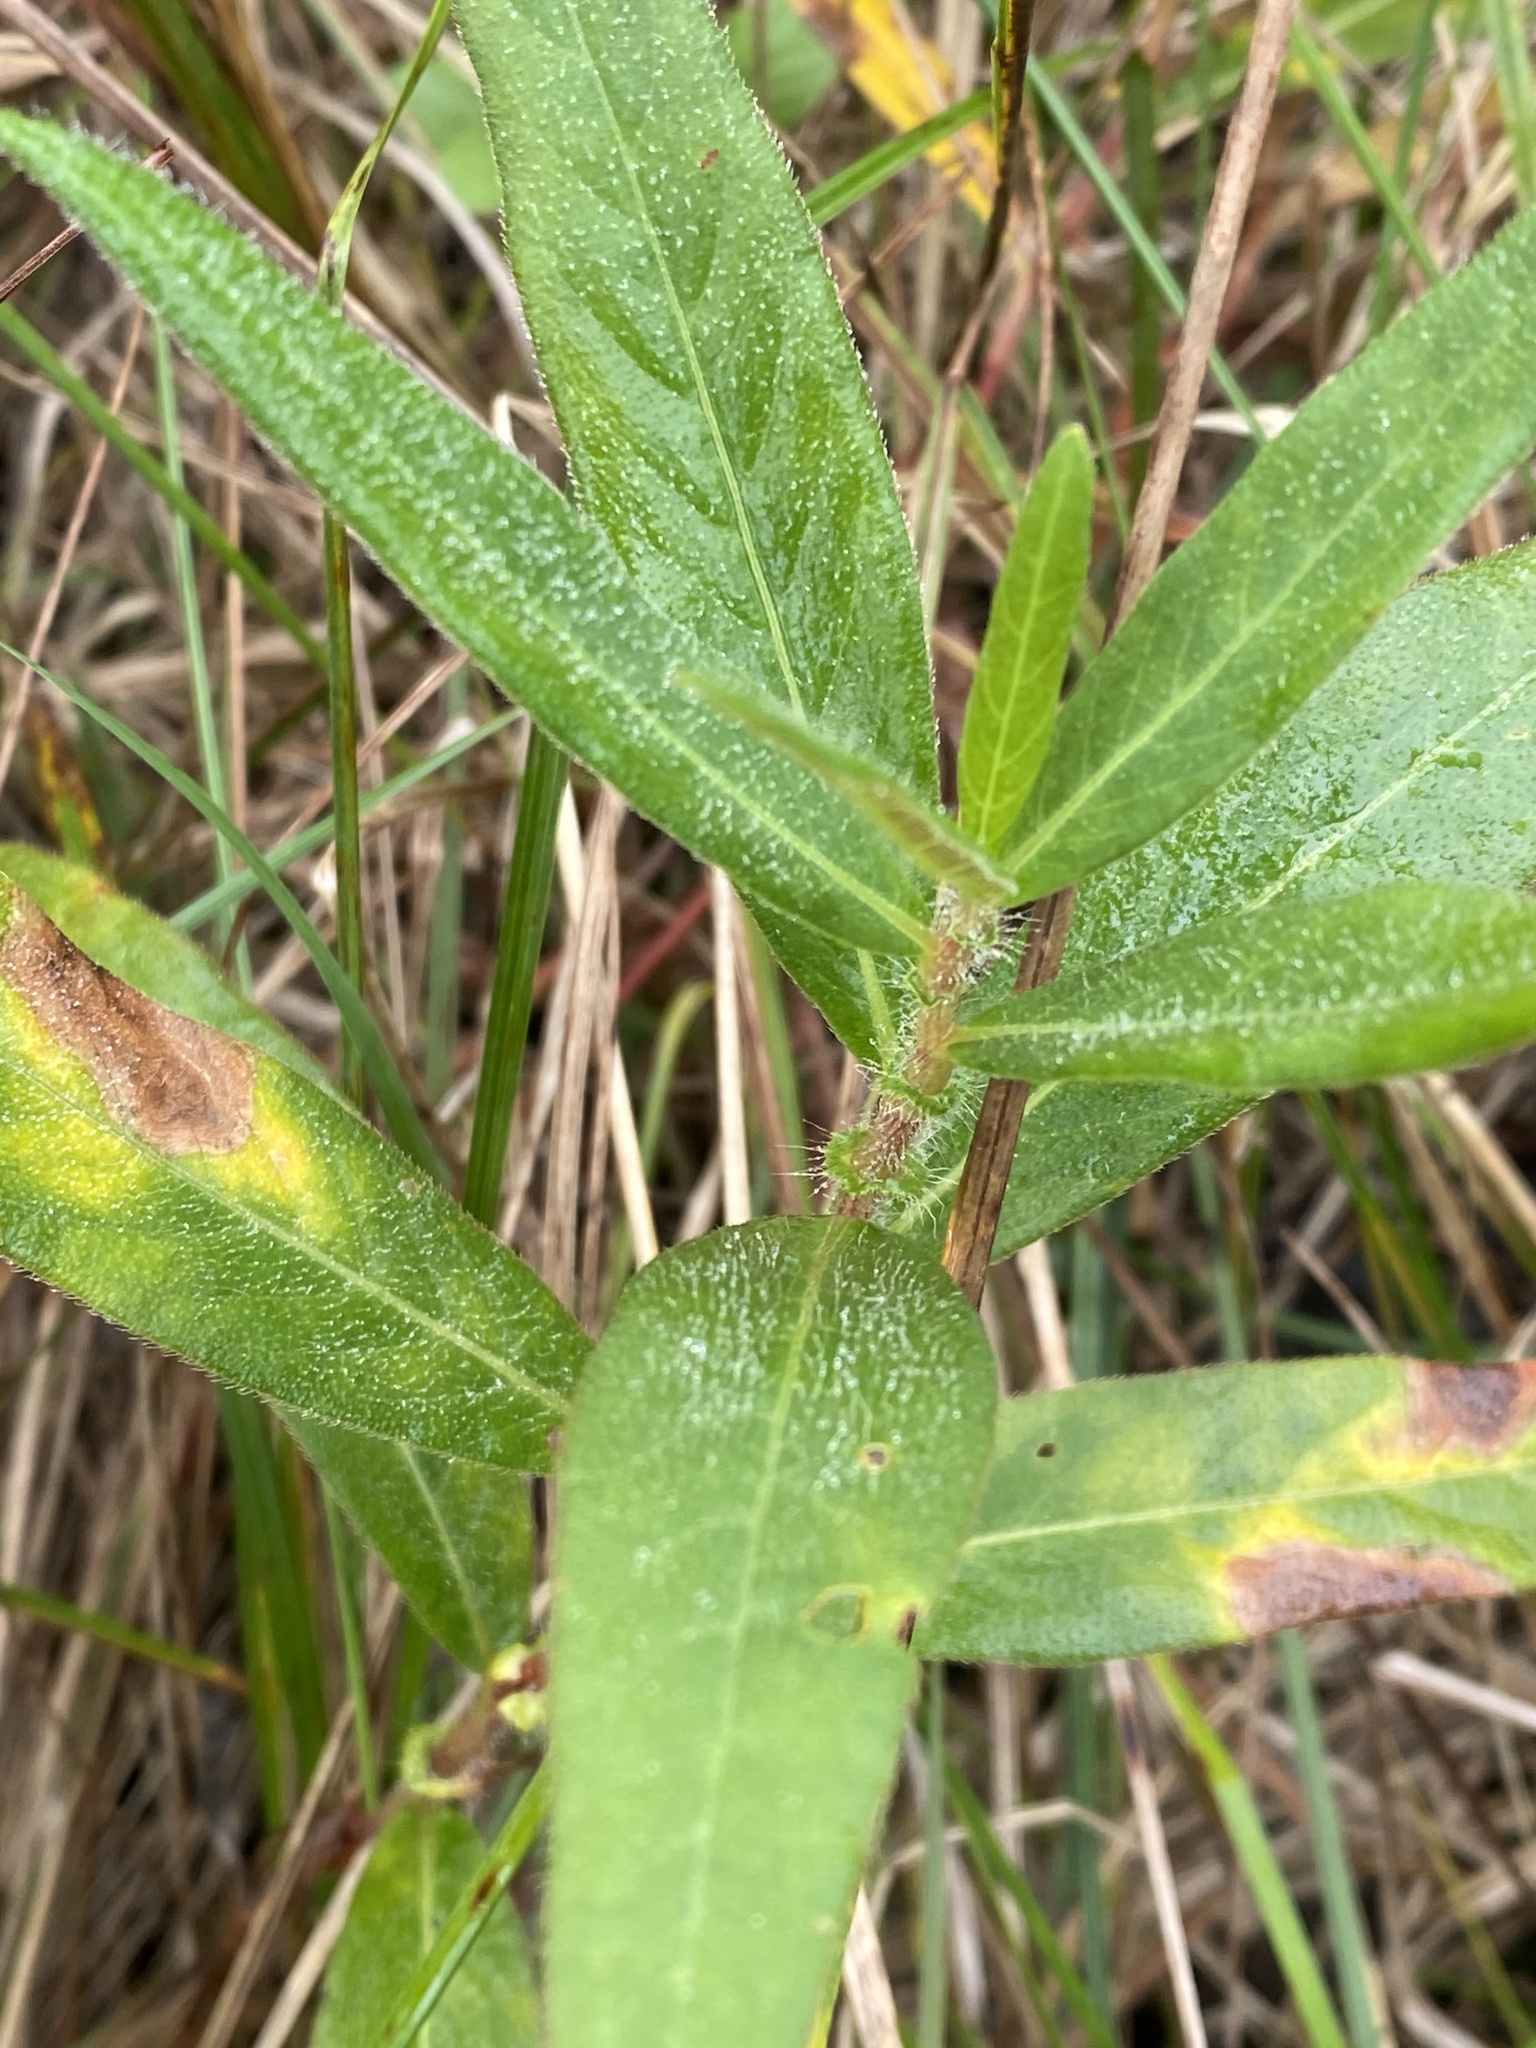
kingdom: Plantae
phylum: Tracheophyta
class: Magnoliopsida
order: Caryophyllales
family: Polygonaceae
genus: Persicaria
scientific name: Persicaria amphibia
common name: Amphibious bistort
